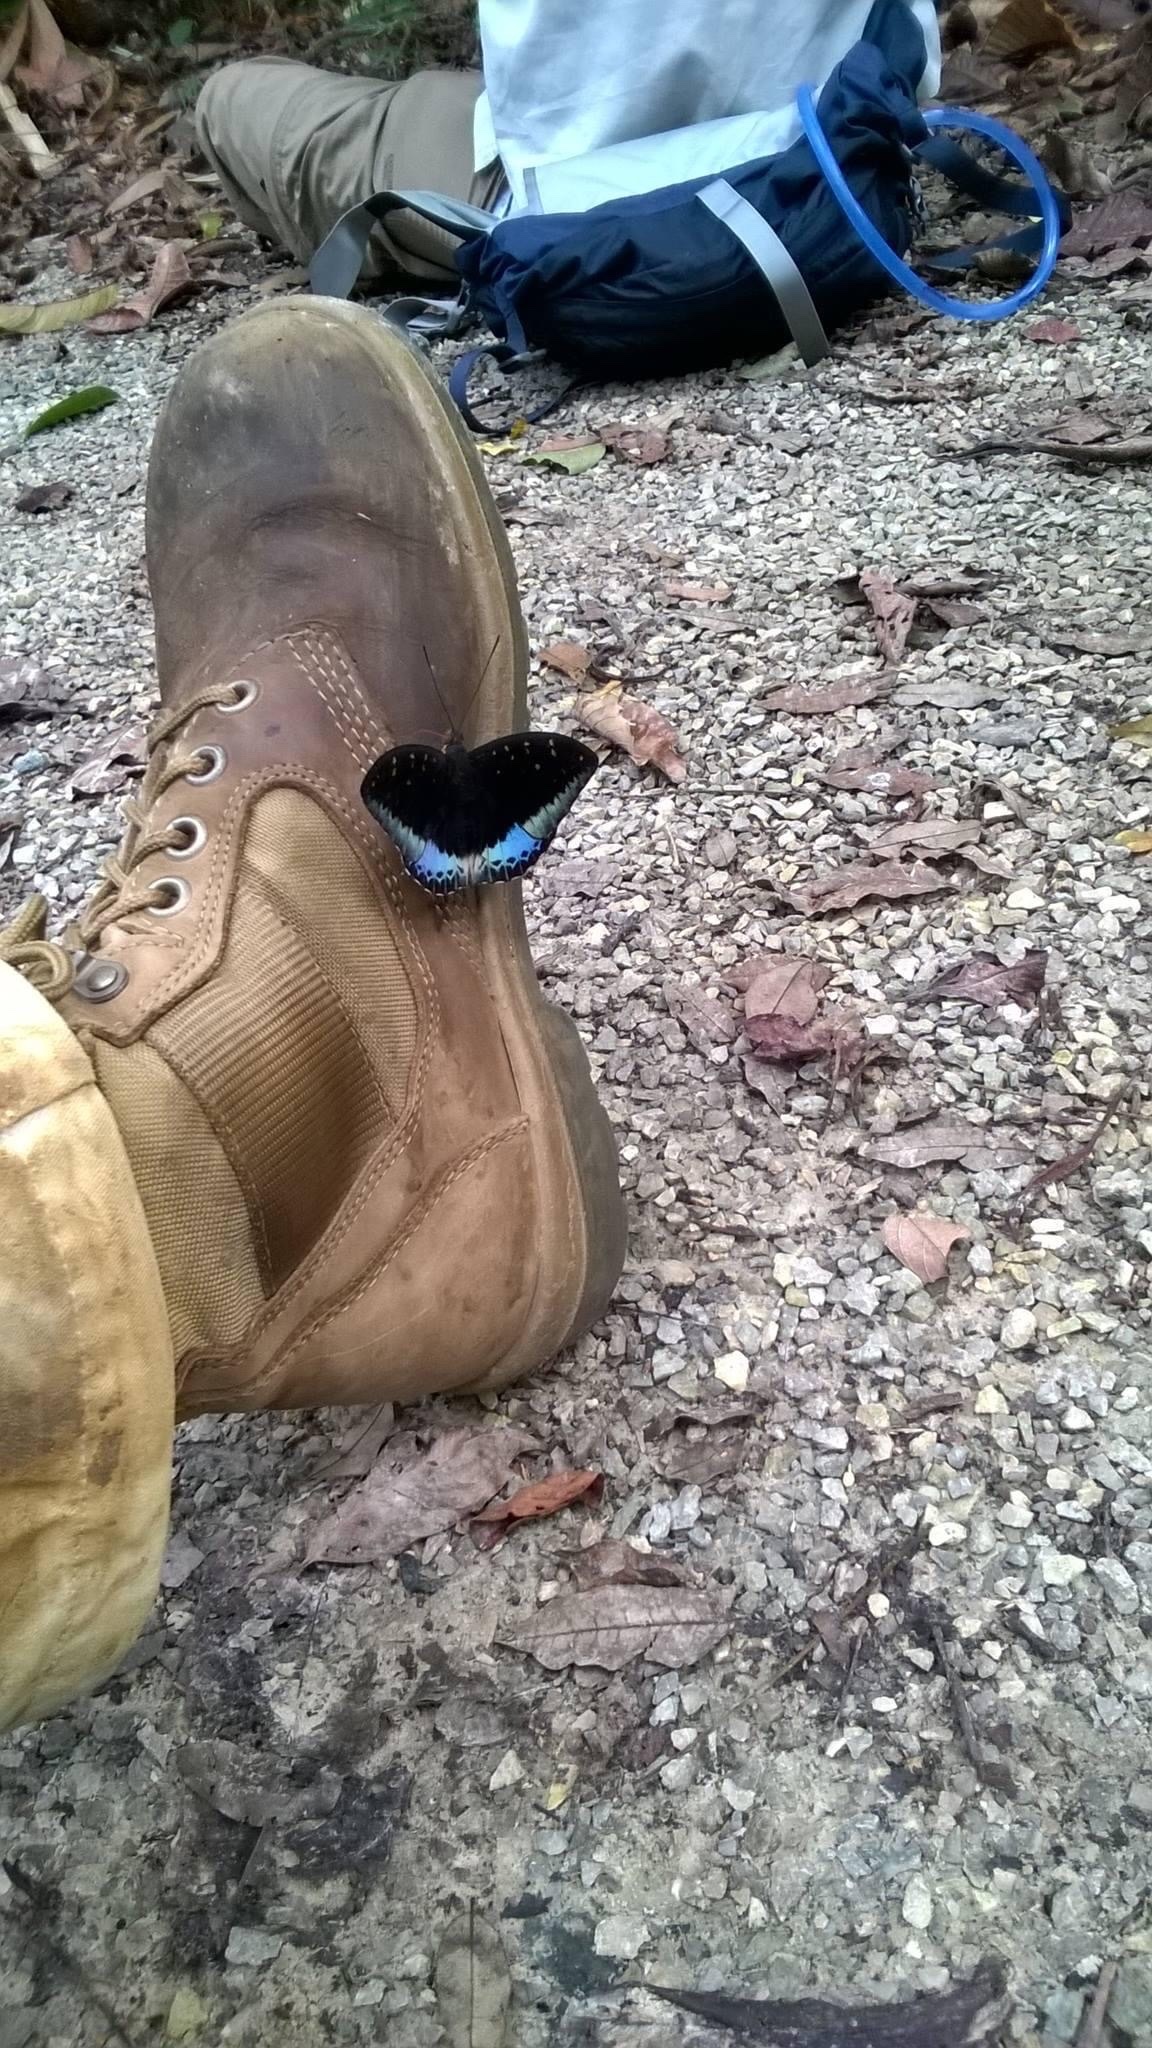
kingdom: Animalia
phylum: Arthropoda
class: Insecta
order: Lepidoptera
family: Nymphalidae
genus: Lexias
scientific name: Lexias dirtea
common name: Black-tipped archduke
